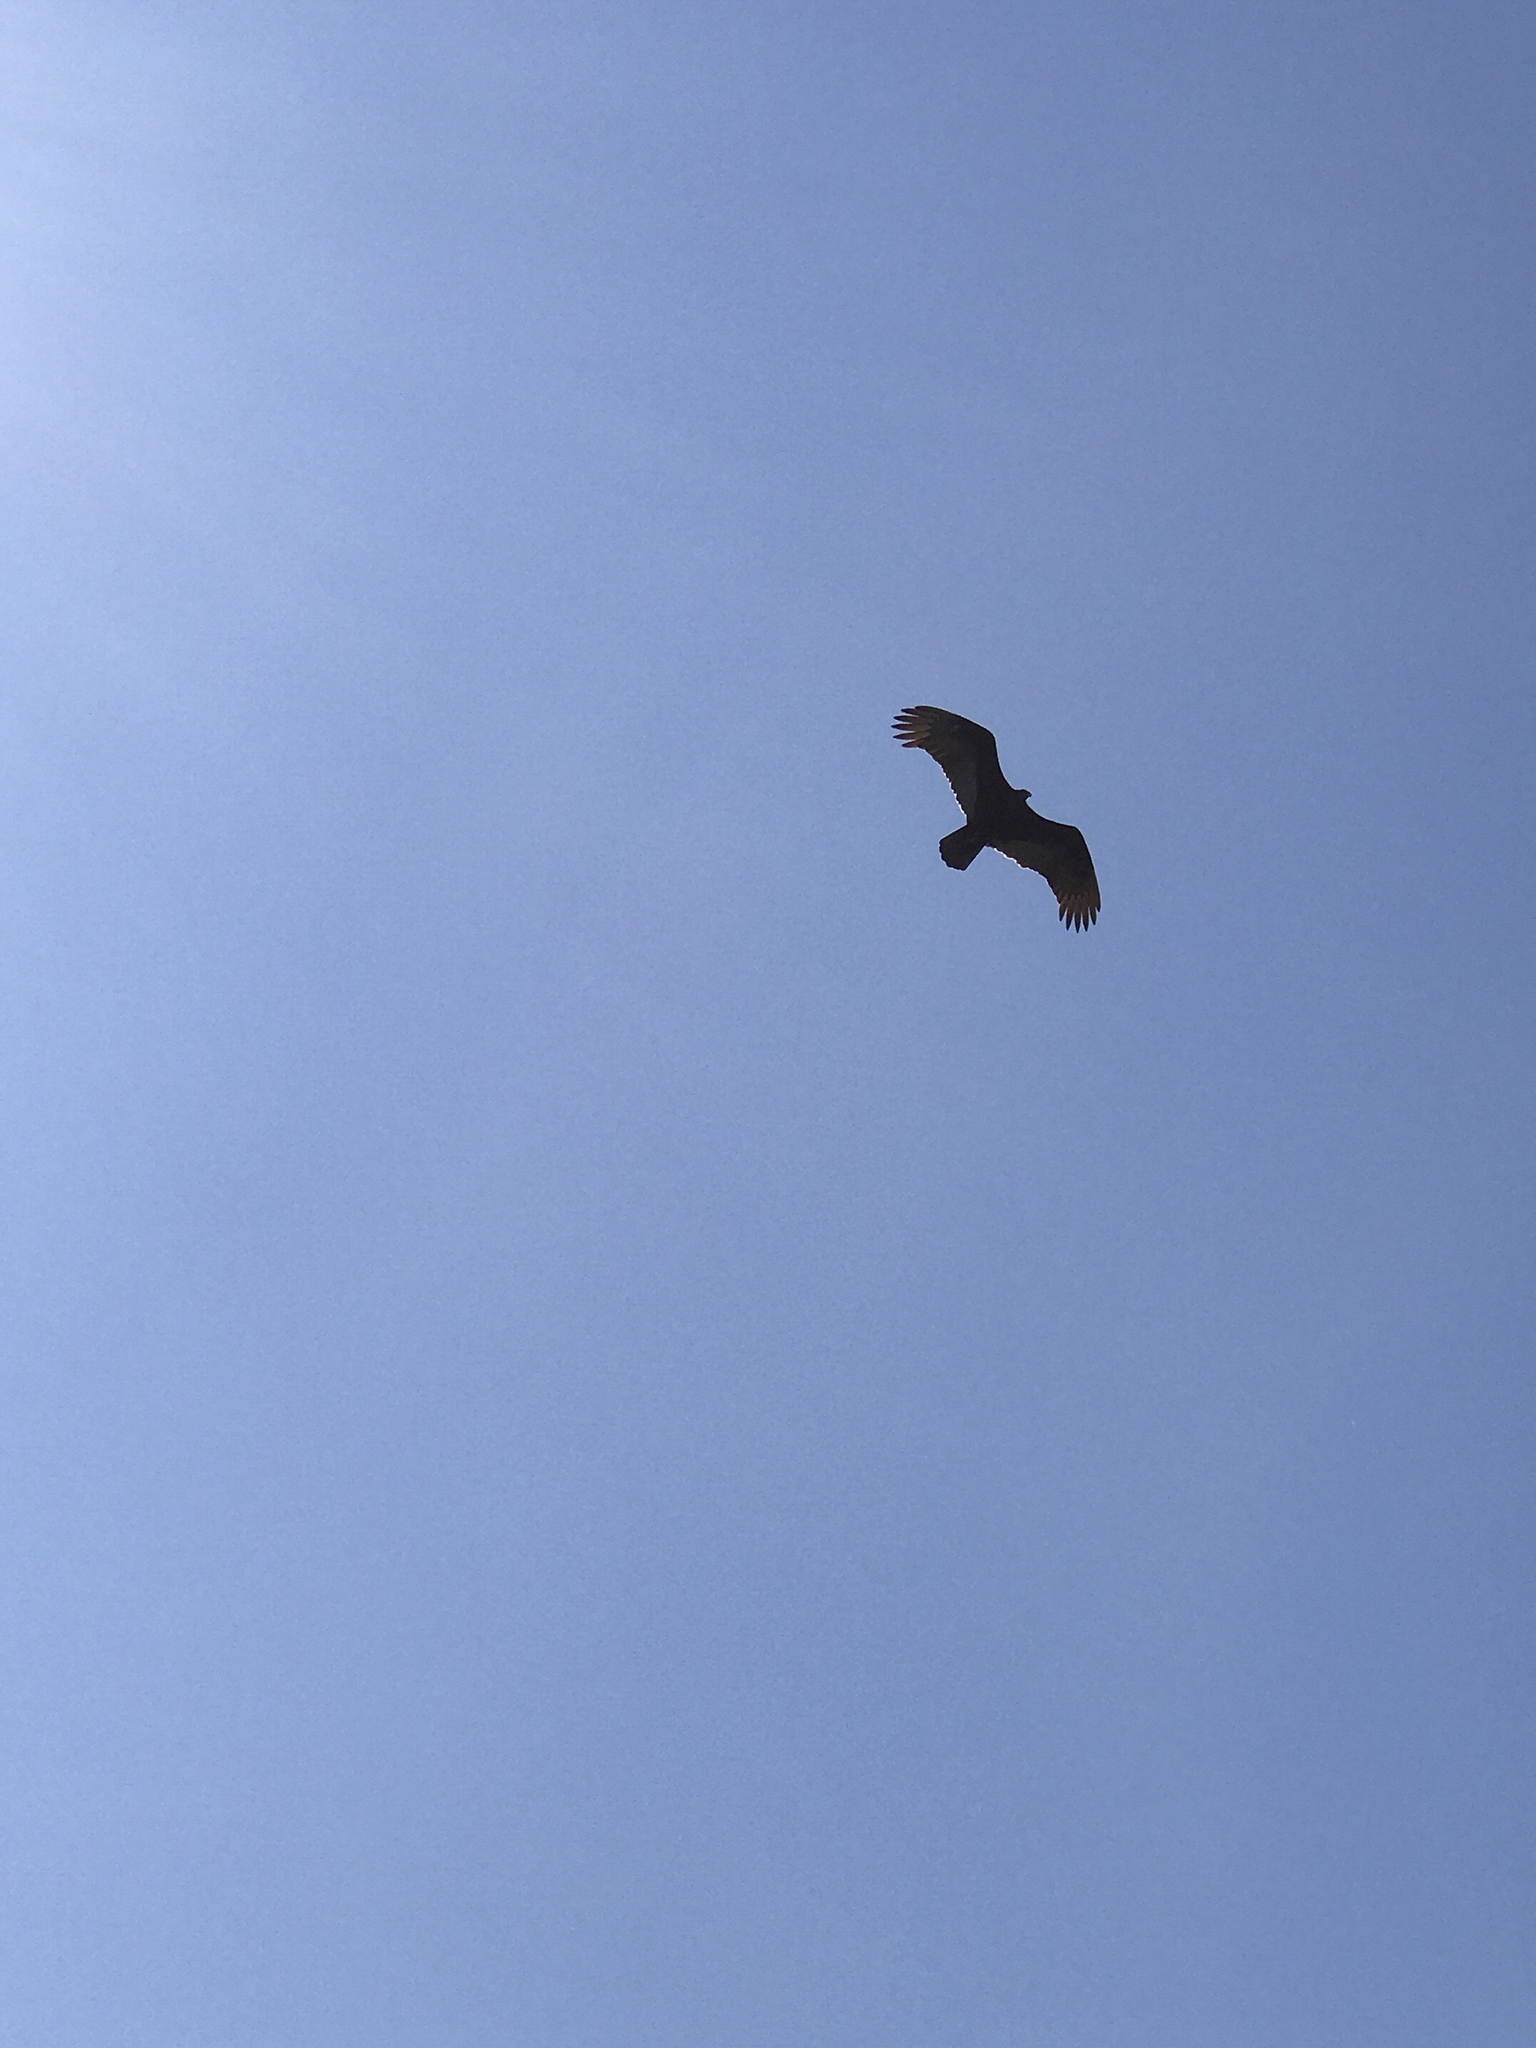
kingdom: Animalia
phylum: Chordata
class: Aves
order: Accipitriformes
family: Cathartidae
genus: Cathartes
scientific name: Cathartes aura
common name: Turkey vulture
